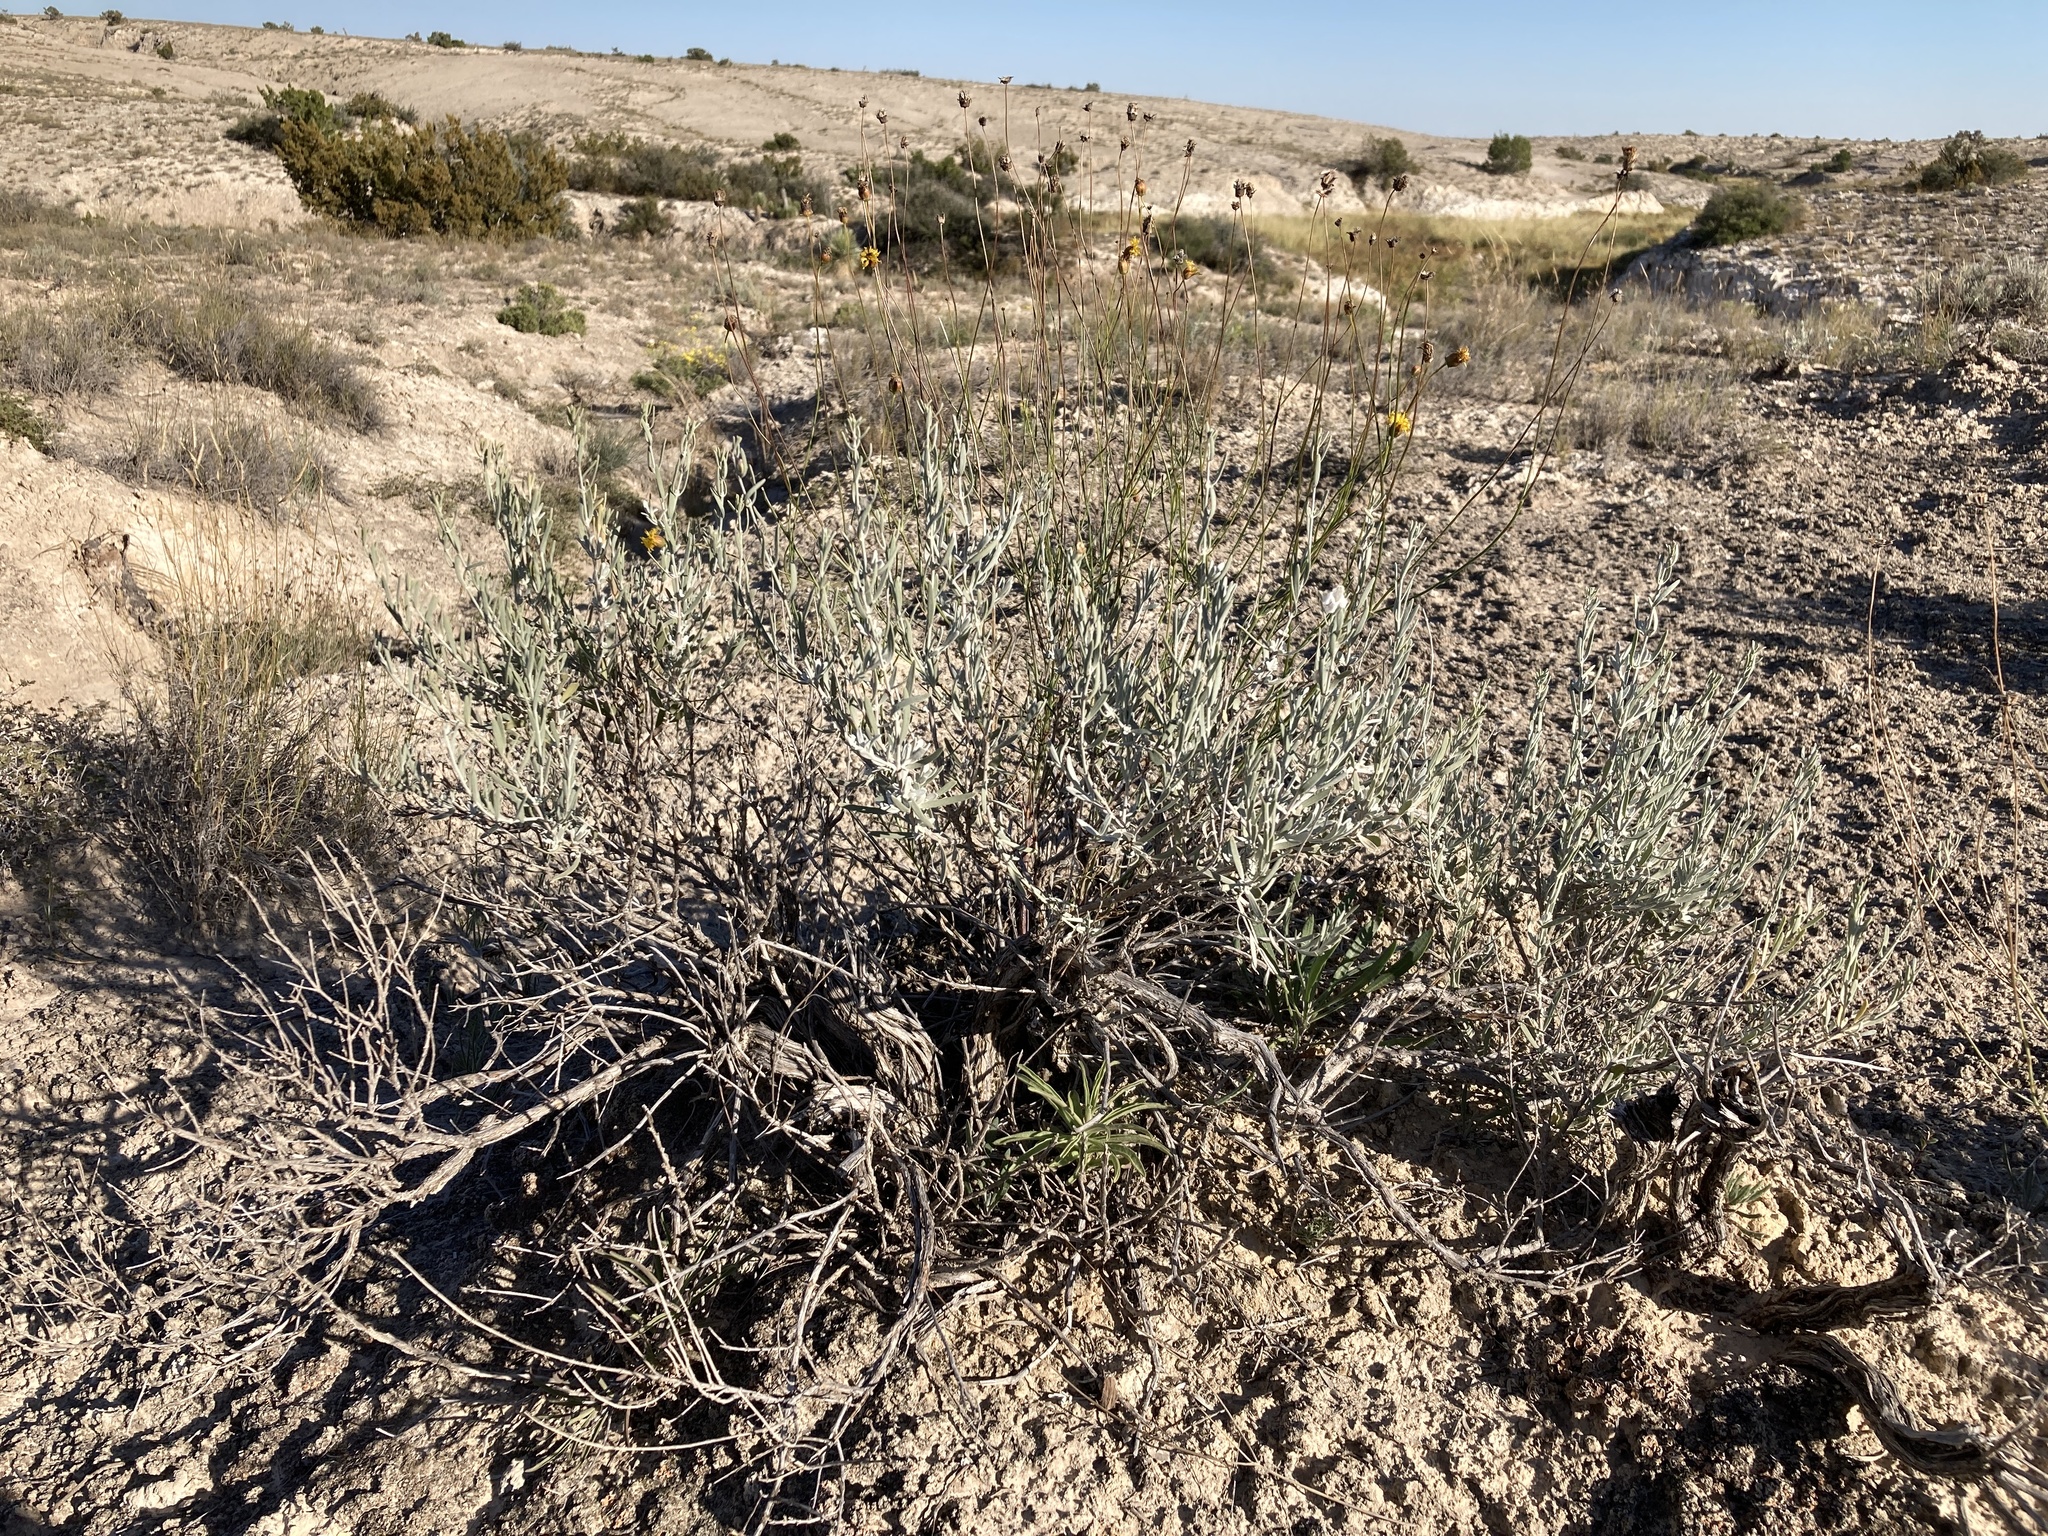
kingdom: Plantae
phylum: Tracheophyta
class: Magnoliopsida
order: Lamiales
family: Lamiaceae
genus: Poliomintha
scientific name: Poliomintha incana
